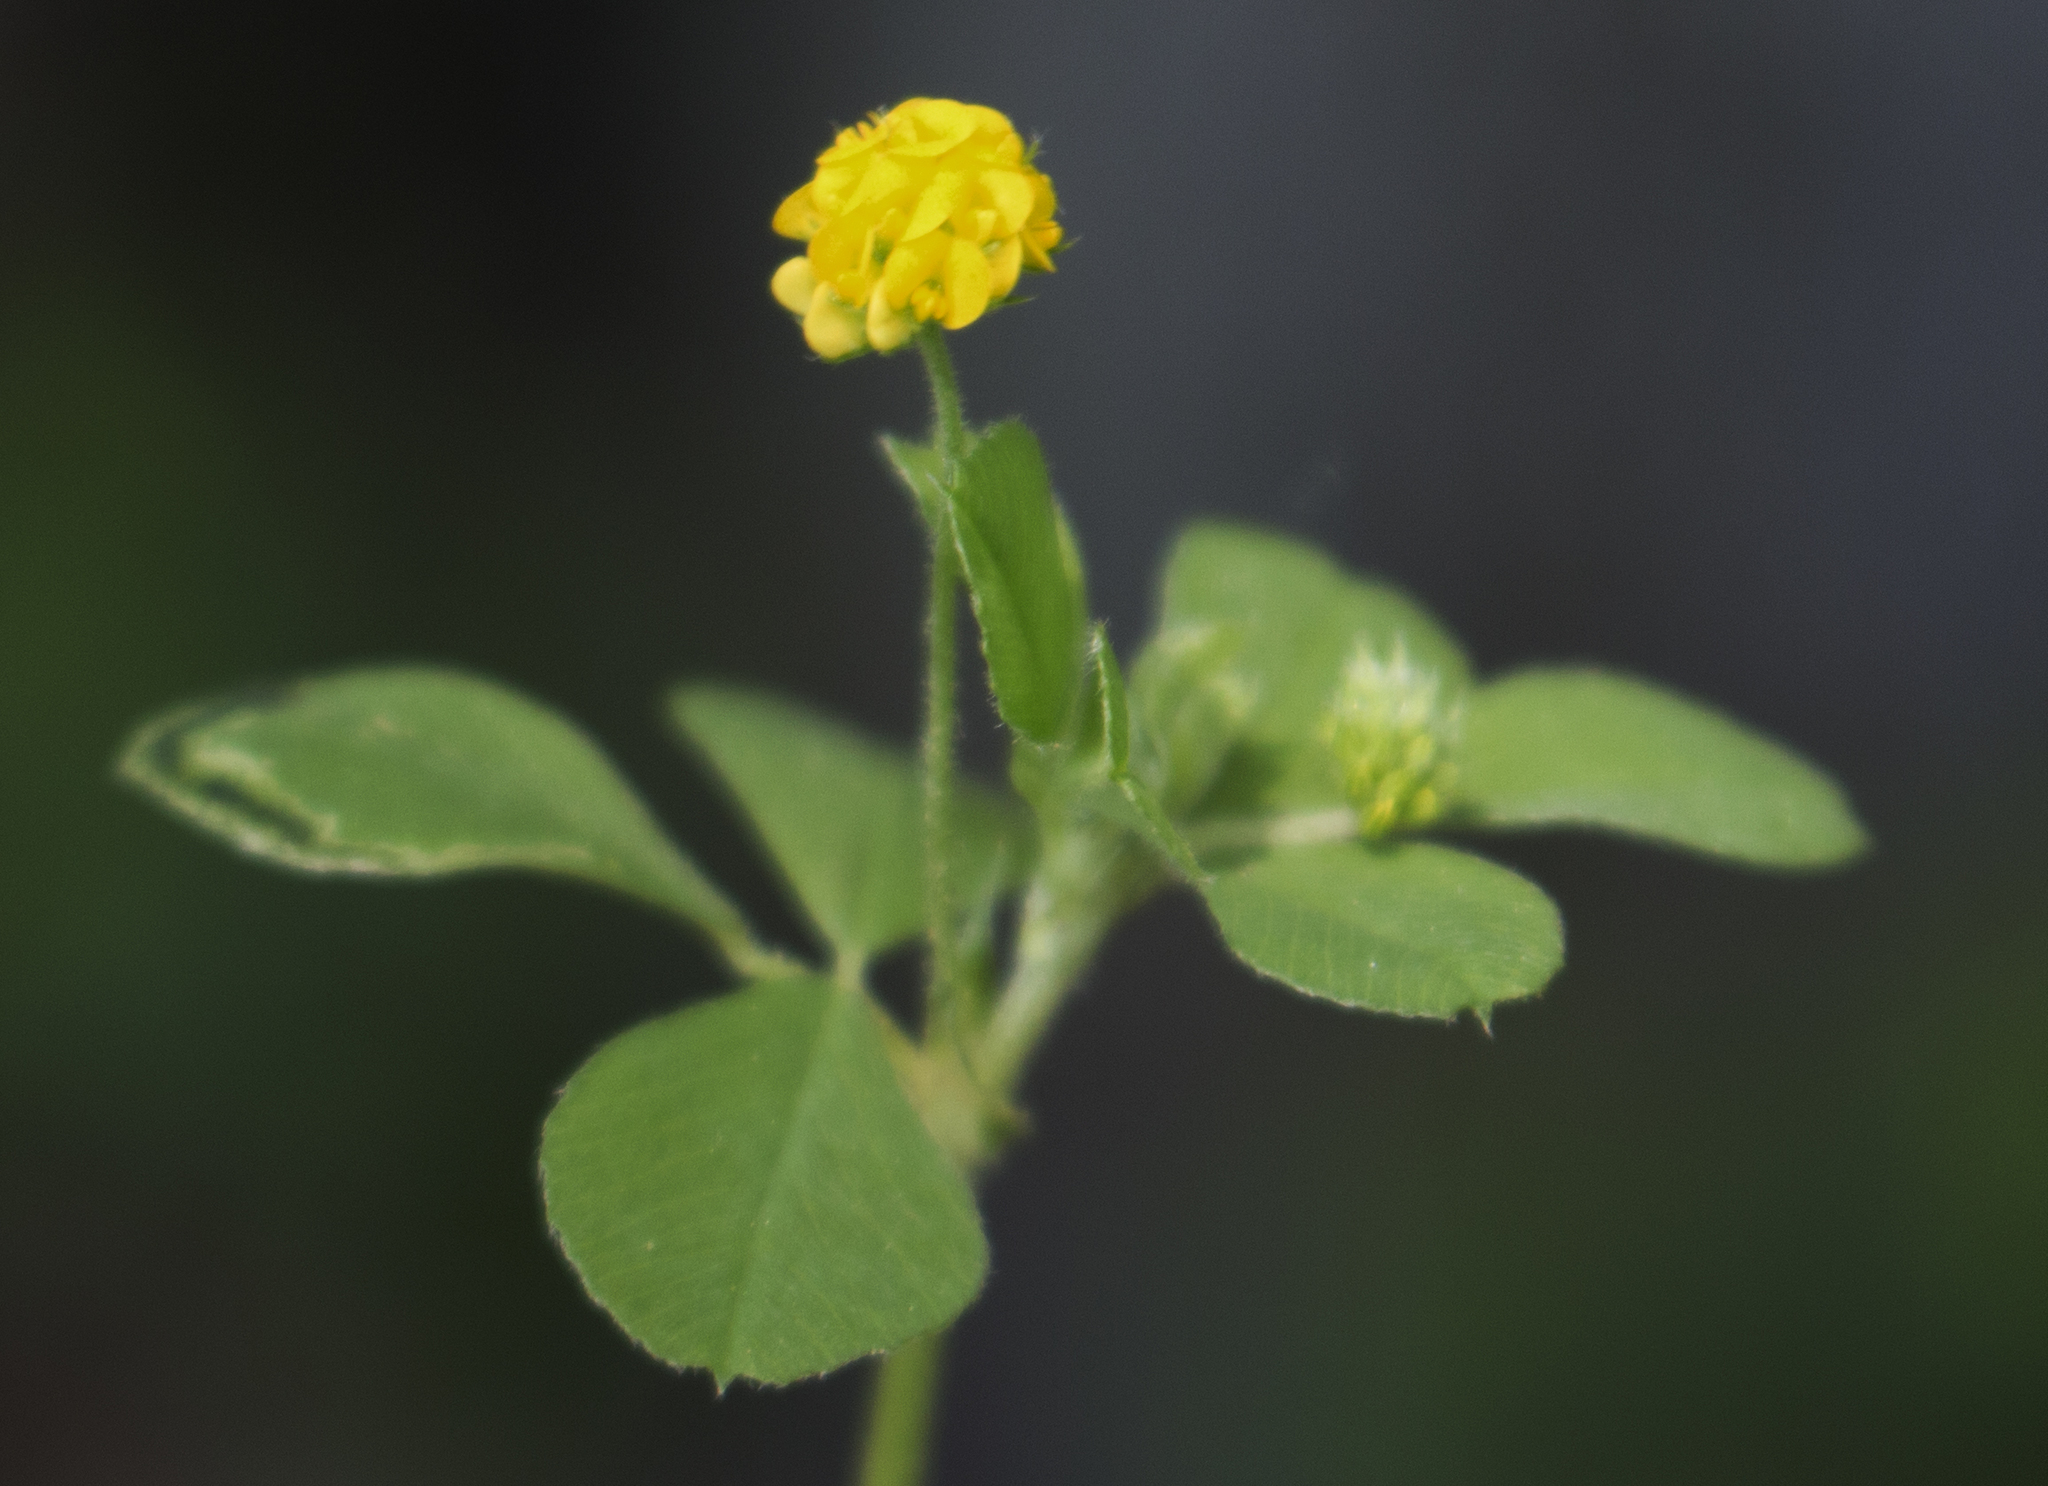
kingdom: Plantae
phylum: Tracheophyta
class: Magnoliopsida
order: Fabales
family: Fabaceae
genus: Medicago
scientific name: Medicago lupulina
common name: Black medick
